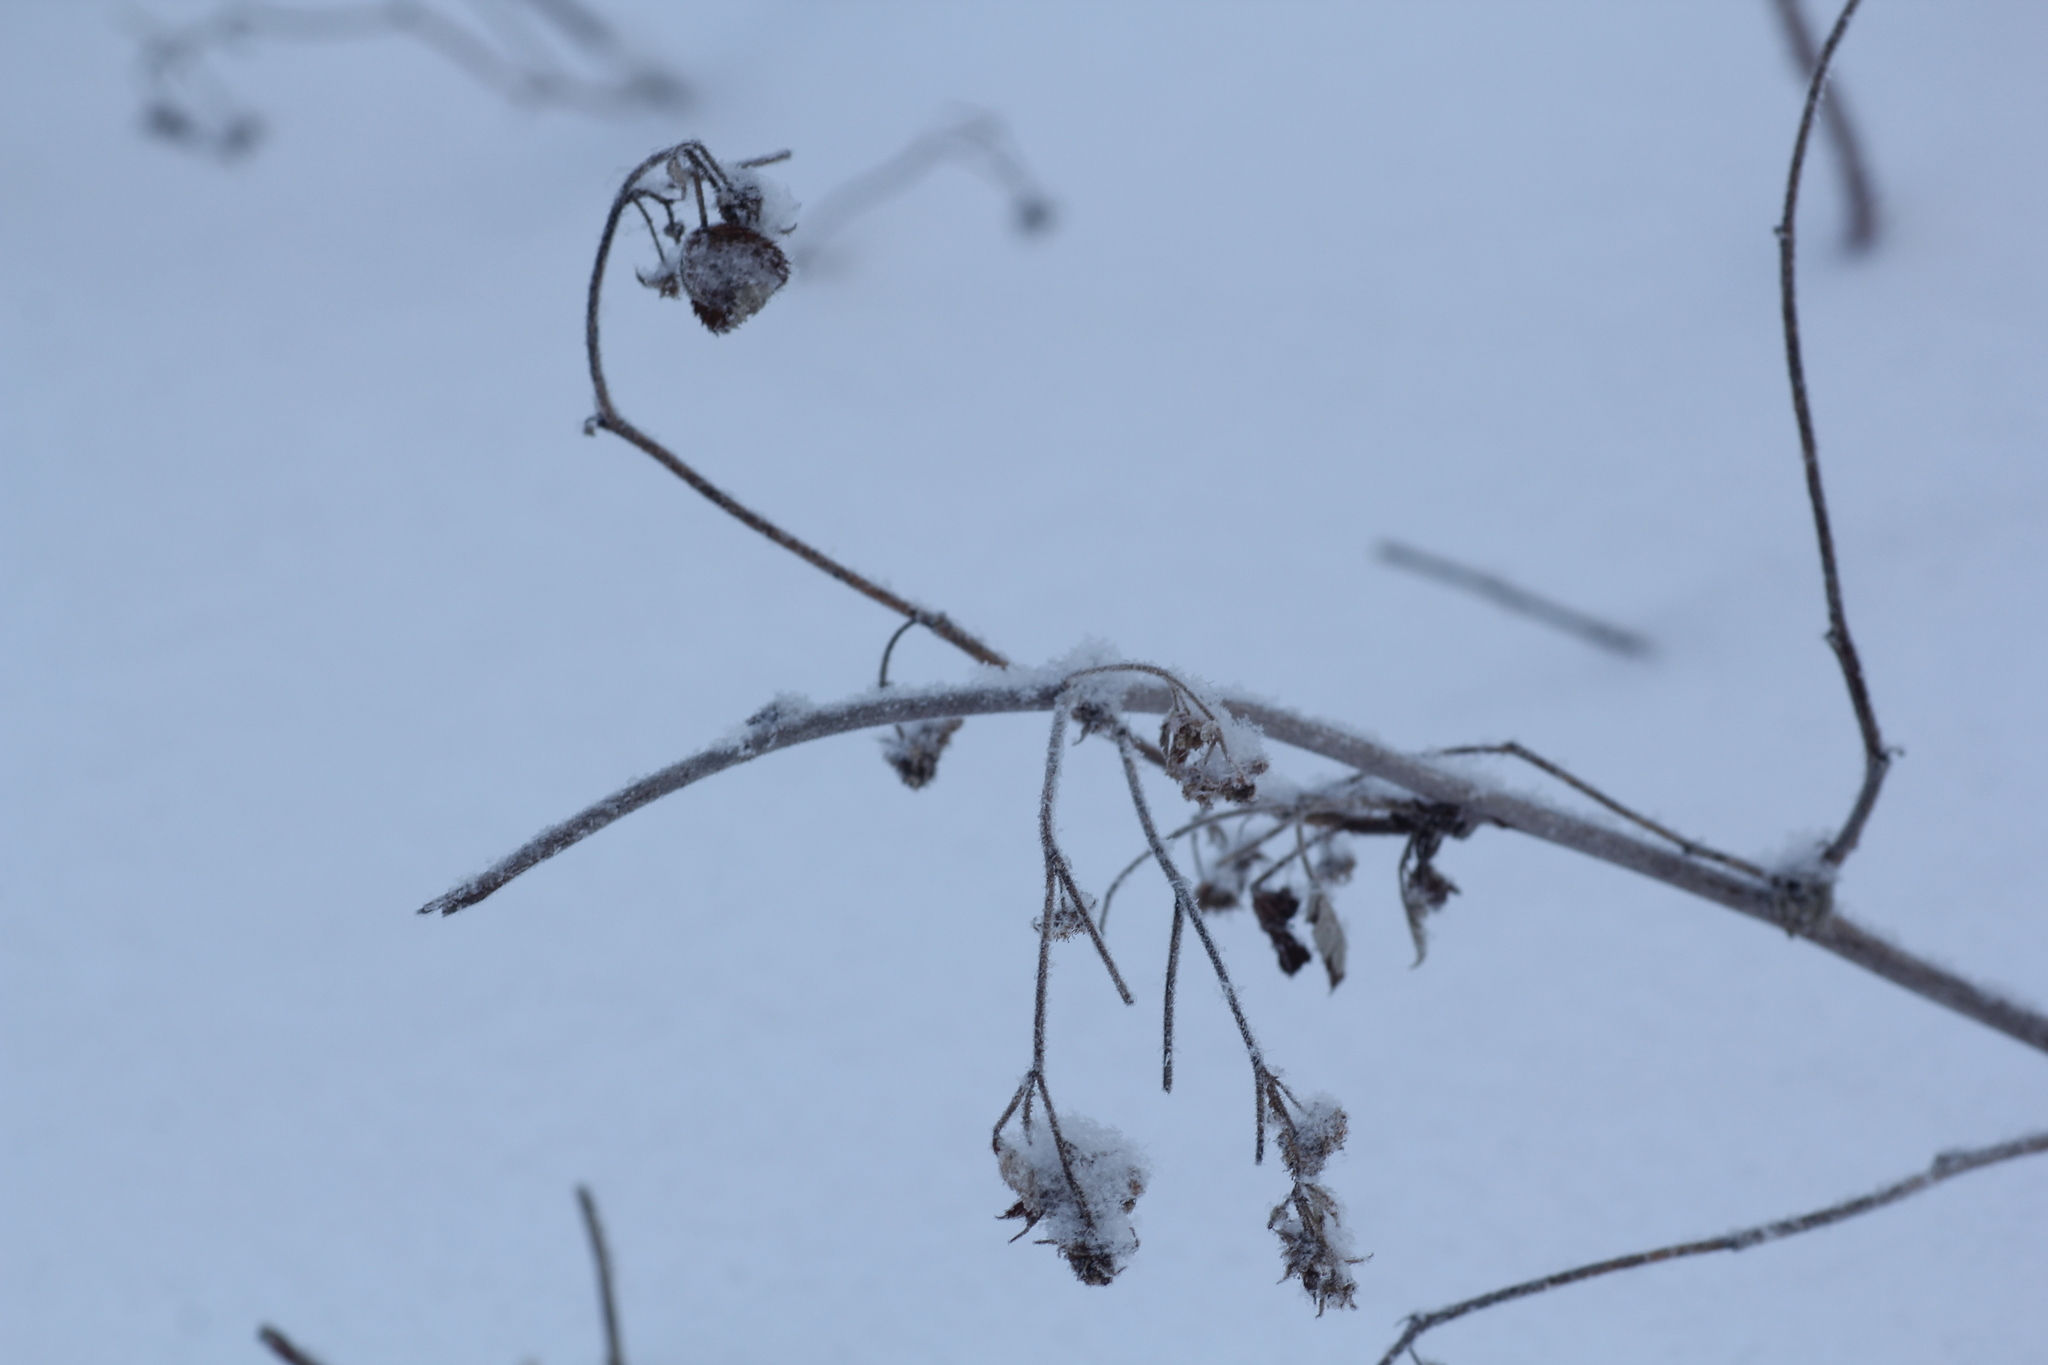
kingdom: Plantae
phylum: Tracheophyta
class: Magnoliopsida
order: Rosales
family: Rosaceae
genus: Rubus
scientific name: Rubus idaeus
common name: Raspberry
